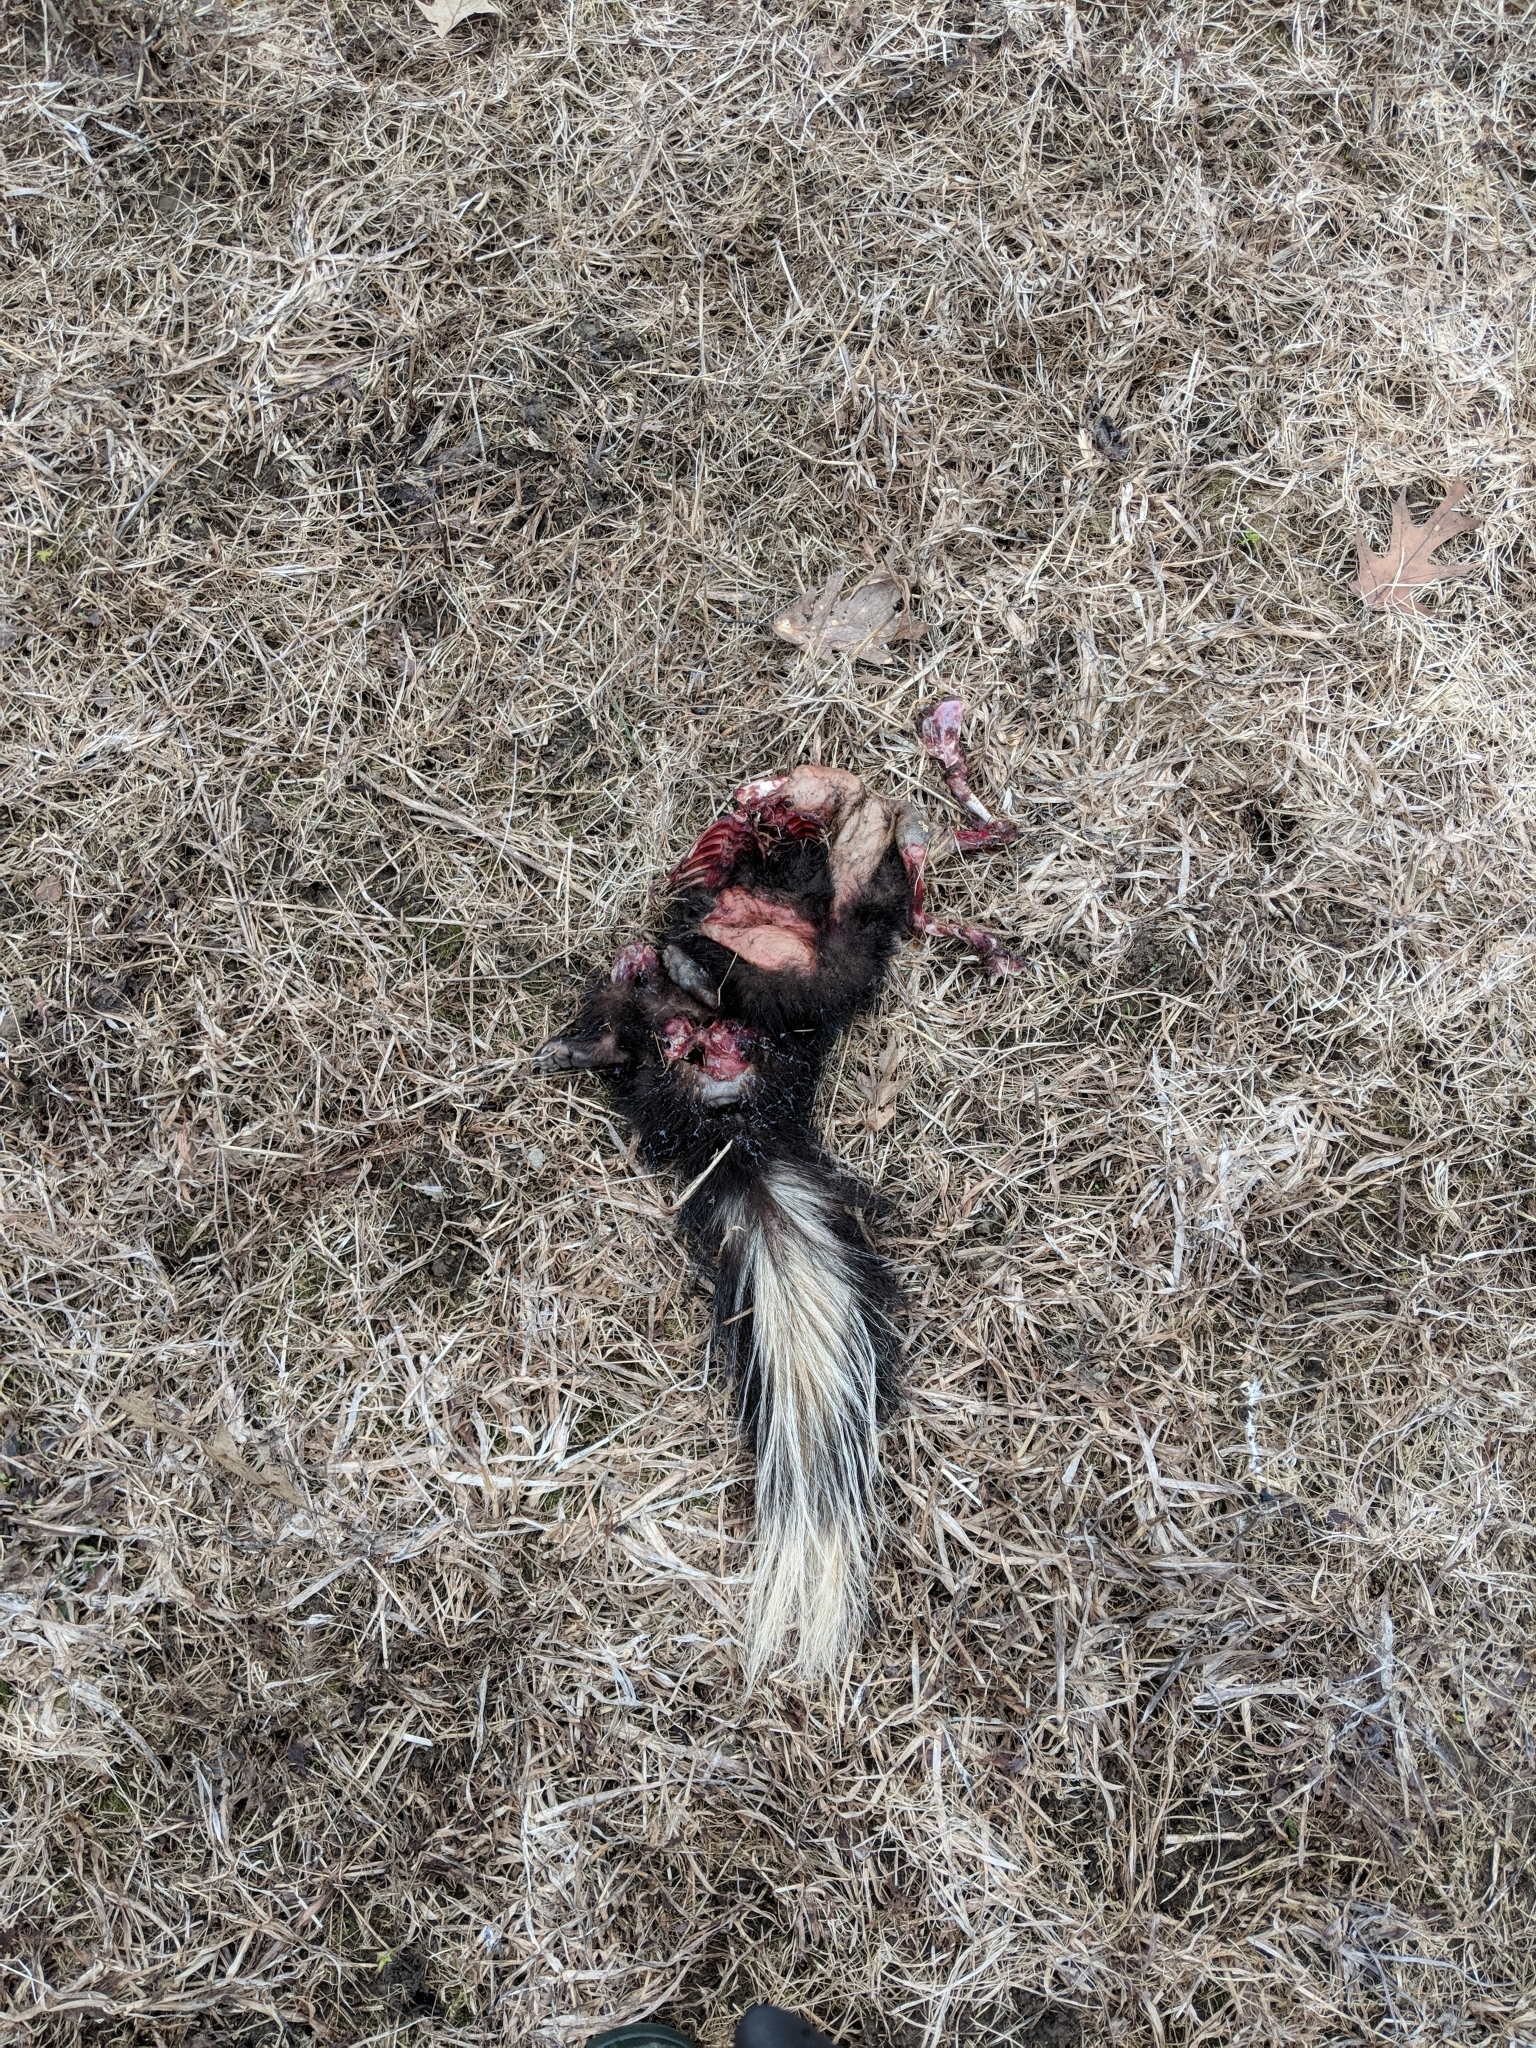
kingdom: Animalia
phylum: Chordata
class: Mammalia
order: Carnivora
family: Mephitidae
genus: Mephitis
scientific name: Mephitis mephitis
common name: Striped skunk
